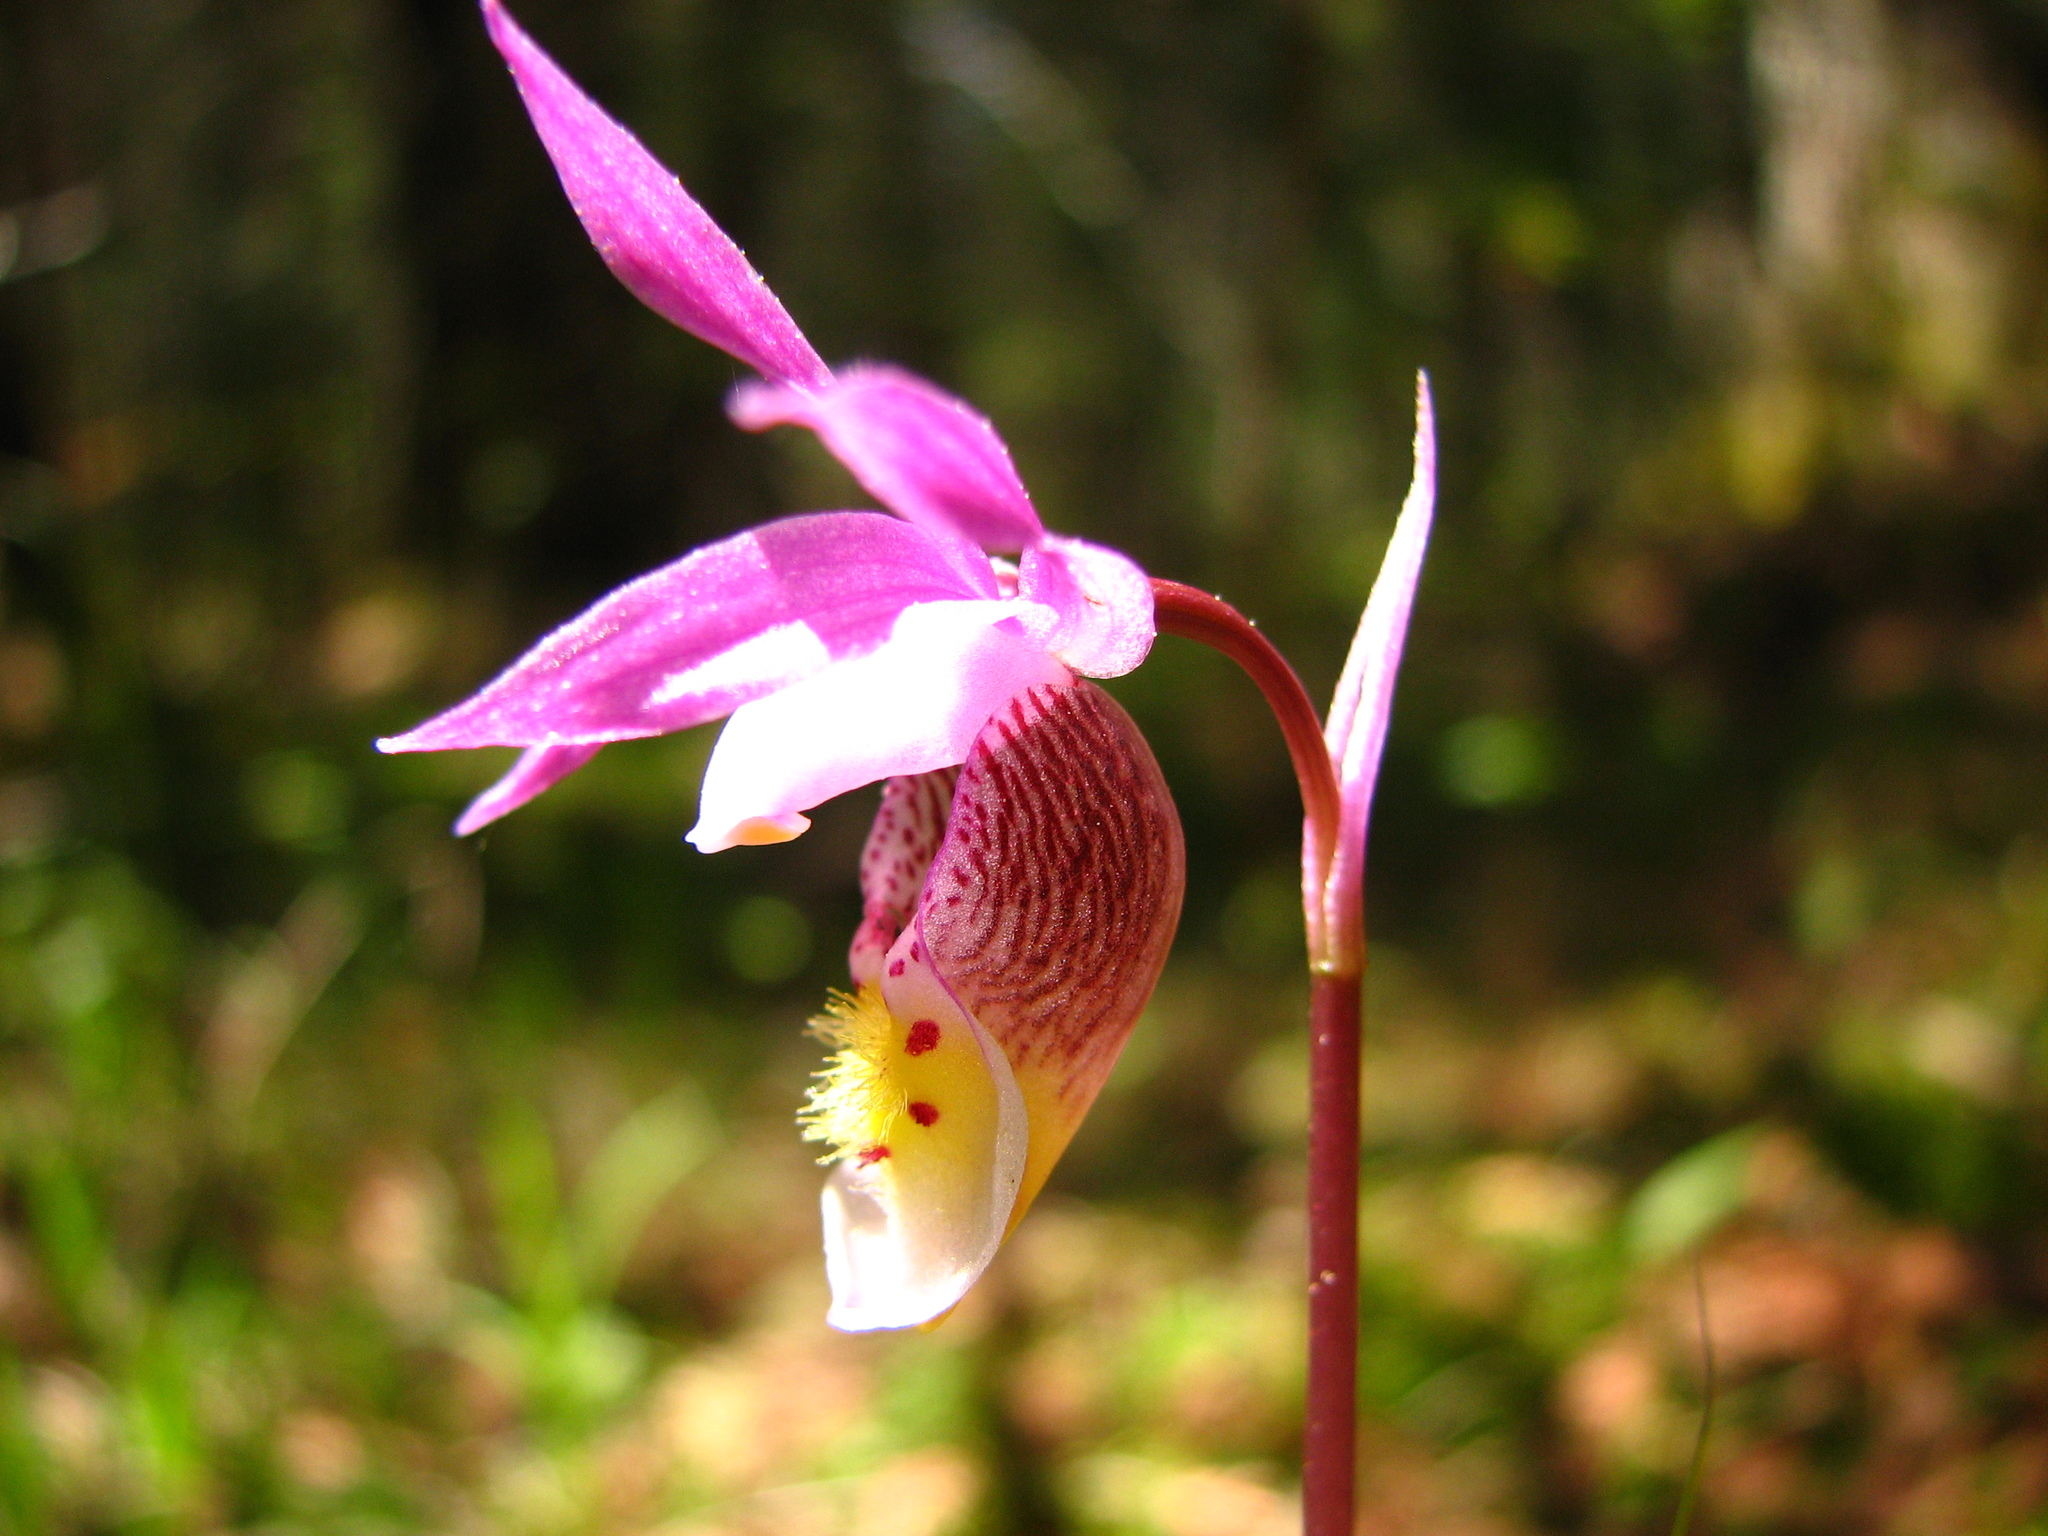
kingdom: Plantae
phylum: Tracheophyta
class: Liliopsida
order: Asparagales
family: Orchidaceae
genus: Calypso
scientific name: Calypso bulbosa
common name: Calypso
